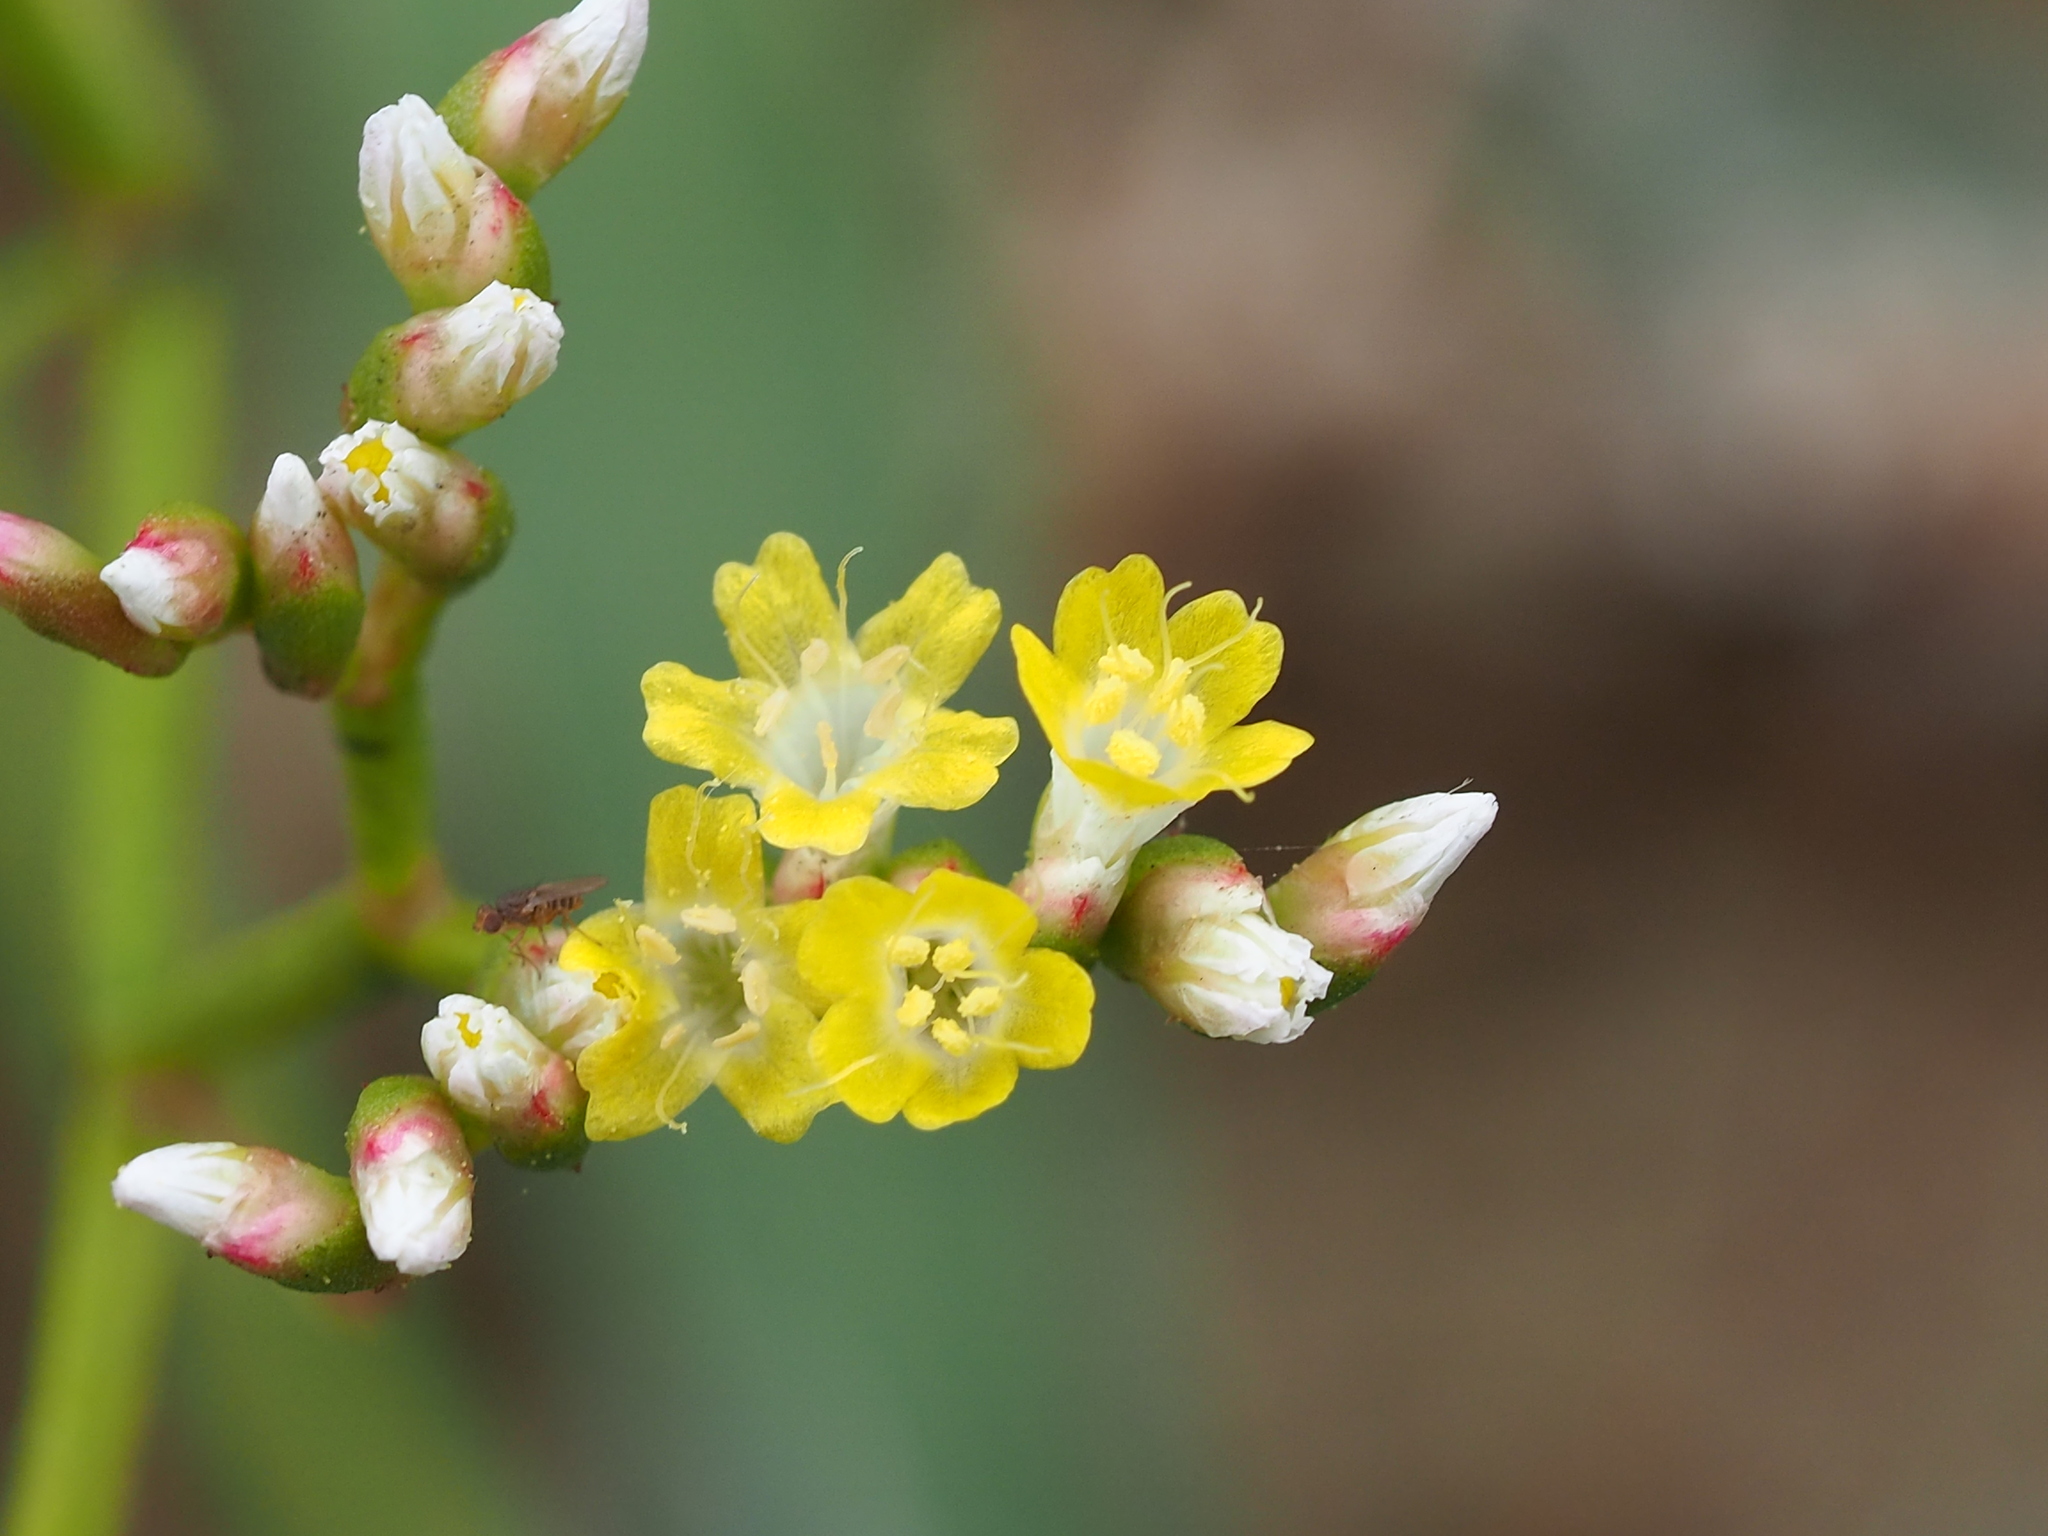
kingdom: Plantae
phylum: Tracheophyta
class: Magnoliopsida
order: Caryophyllales
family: Plumbaginaceae
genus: Limonium
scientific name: Limonium sinense
